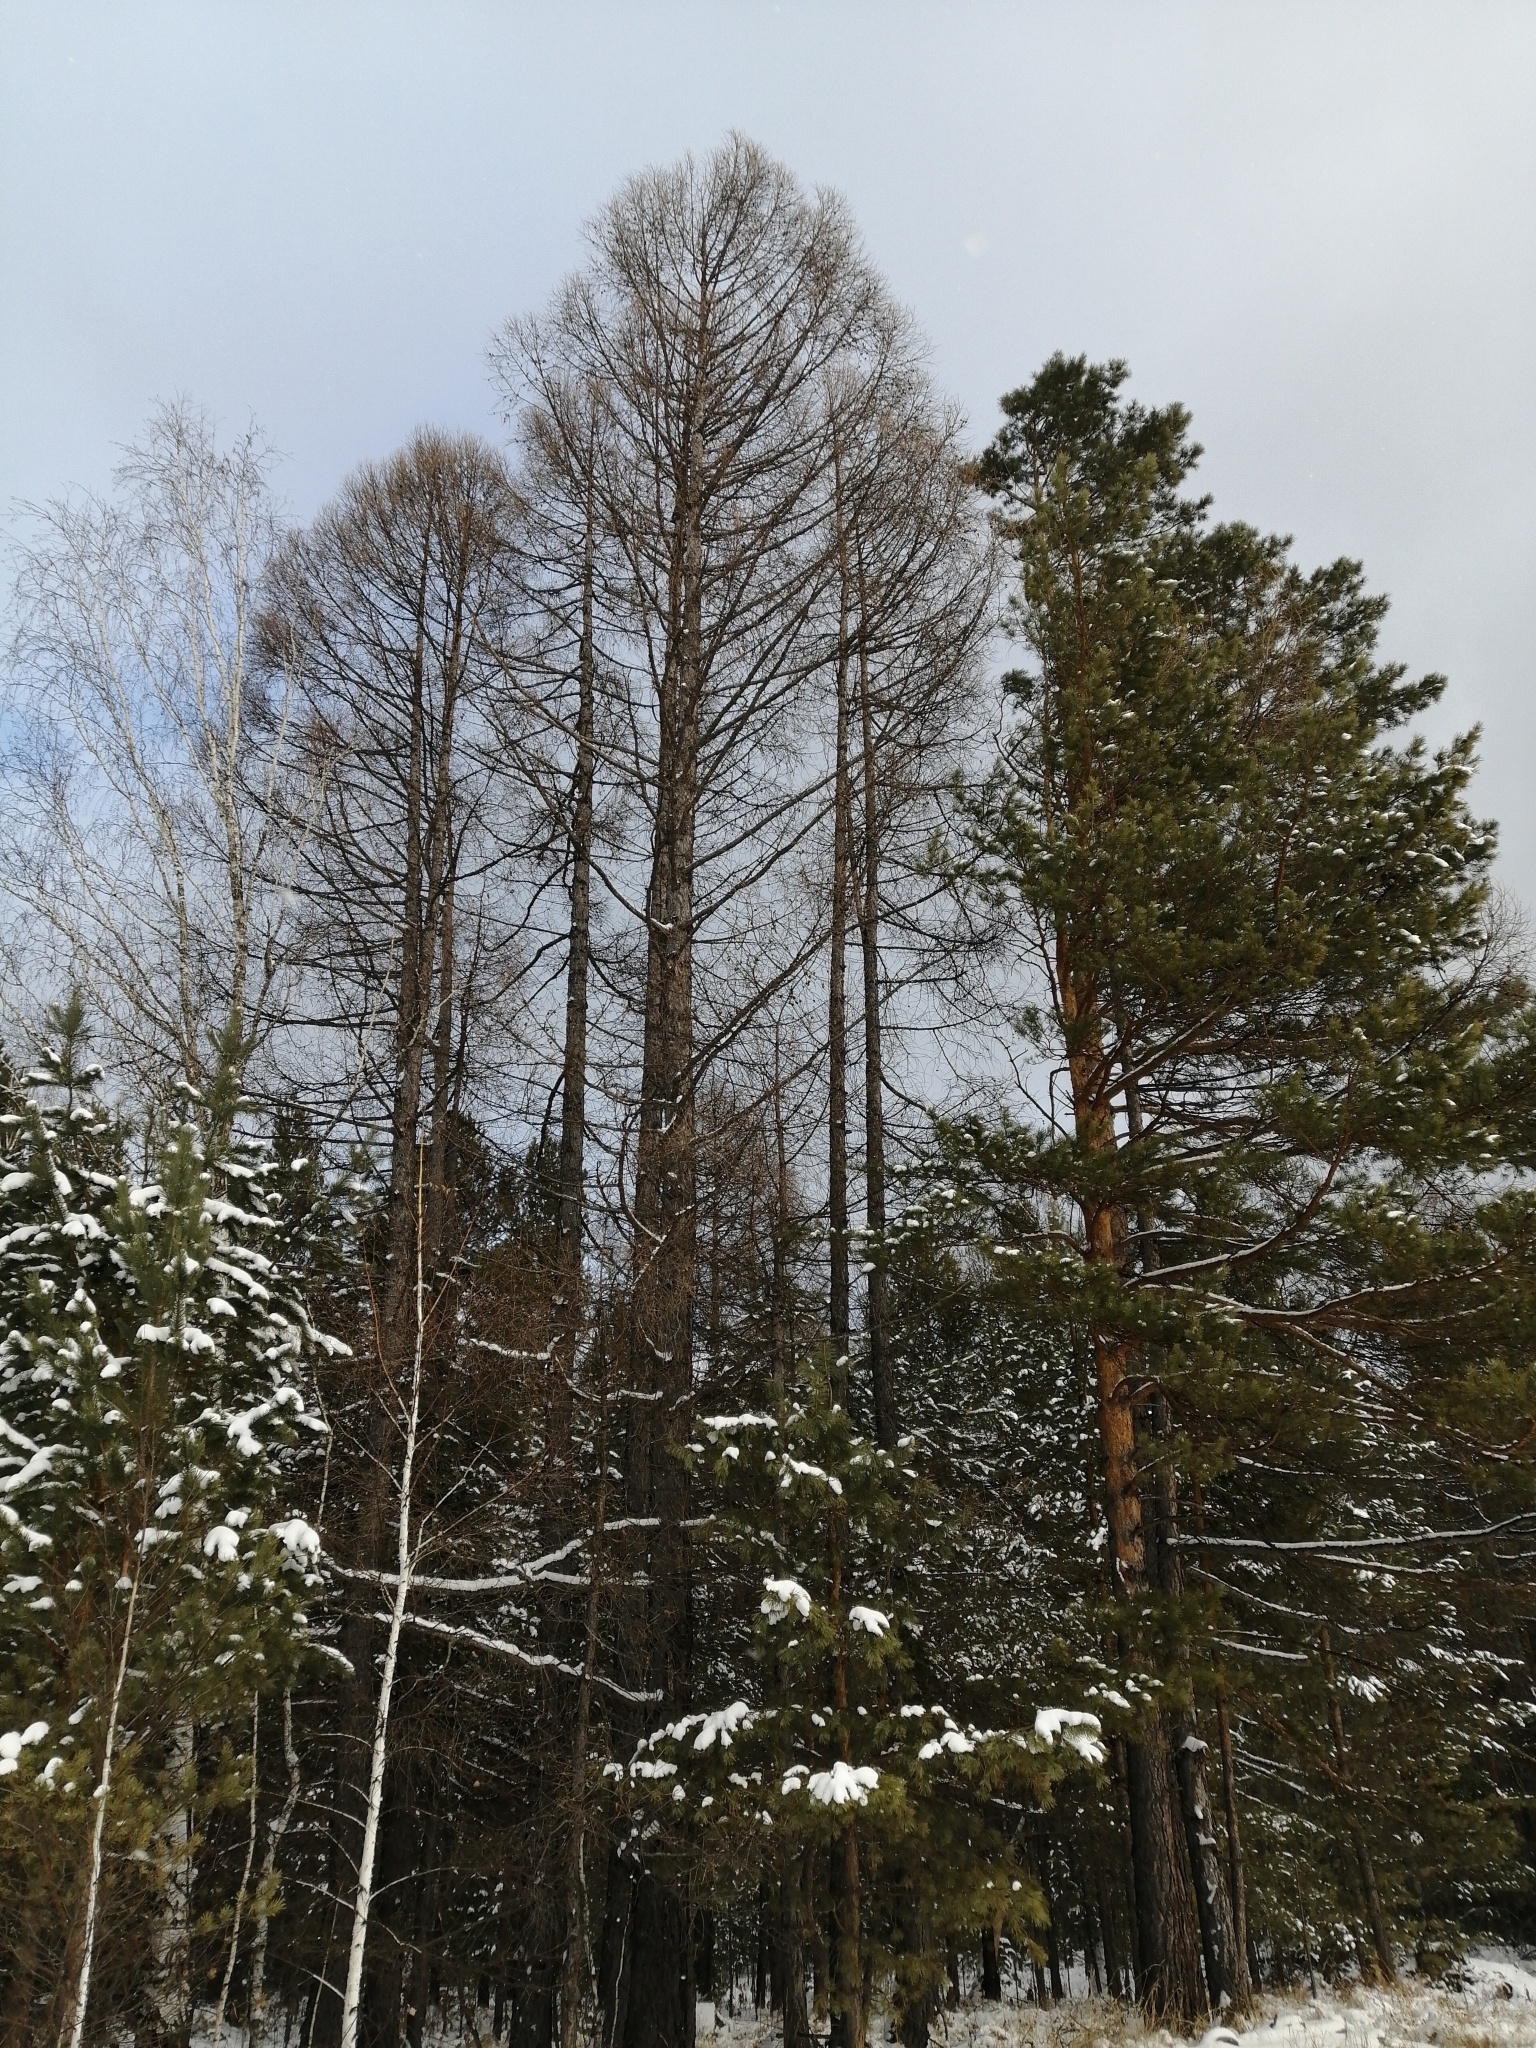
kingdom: Plantae
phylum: Tracheophyta
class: Pinopsida
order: Pinales
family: Pinaceae
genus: Larix
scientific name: Larix sibirica
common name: Siberian larch
